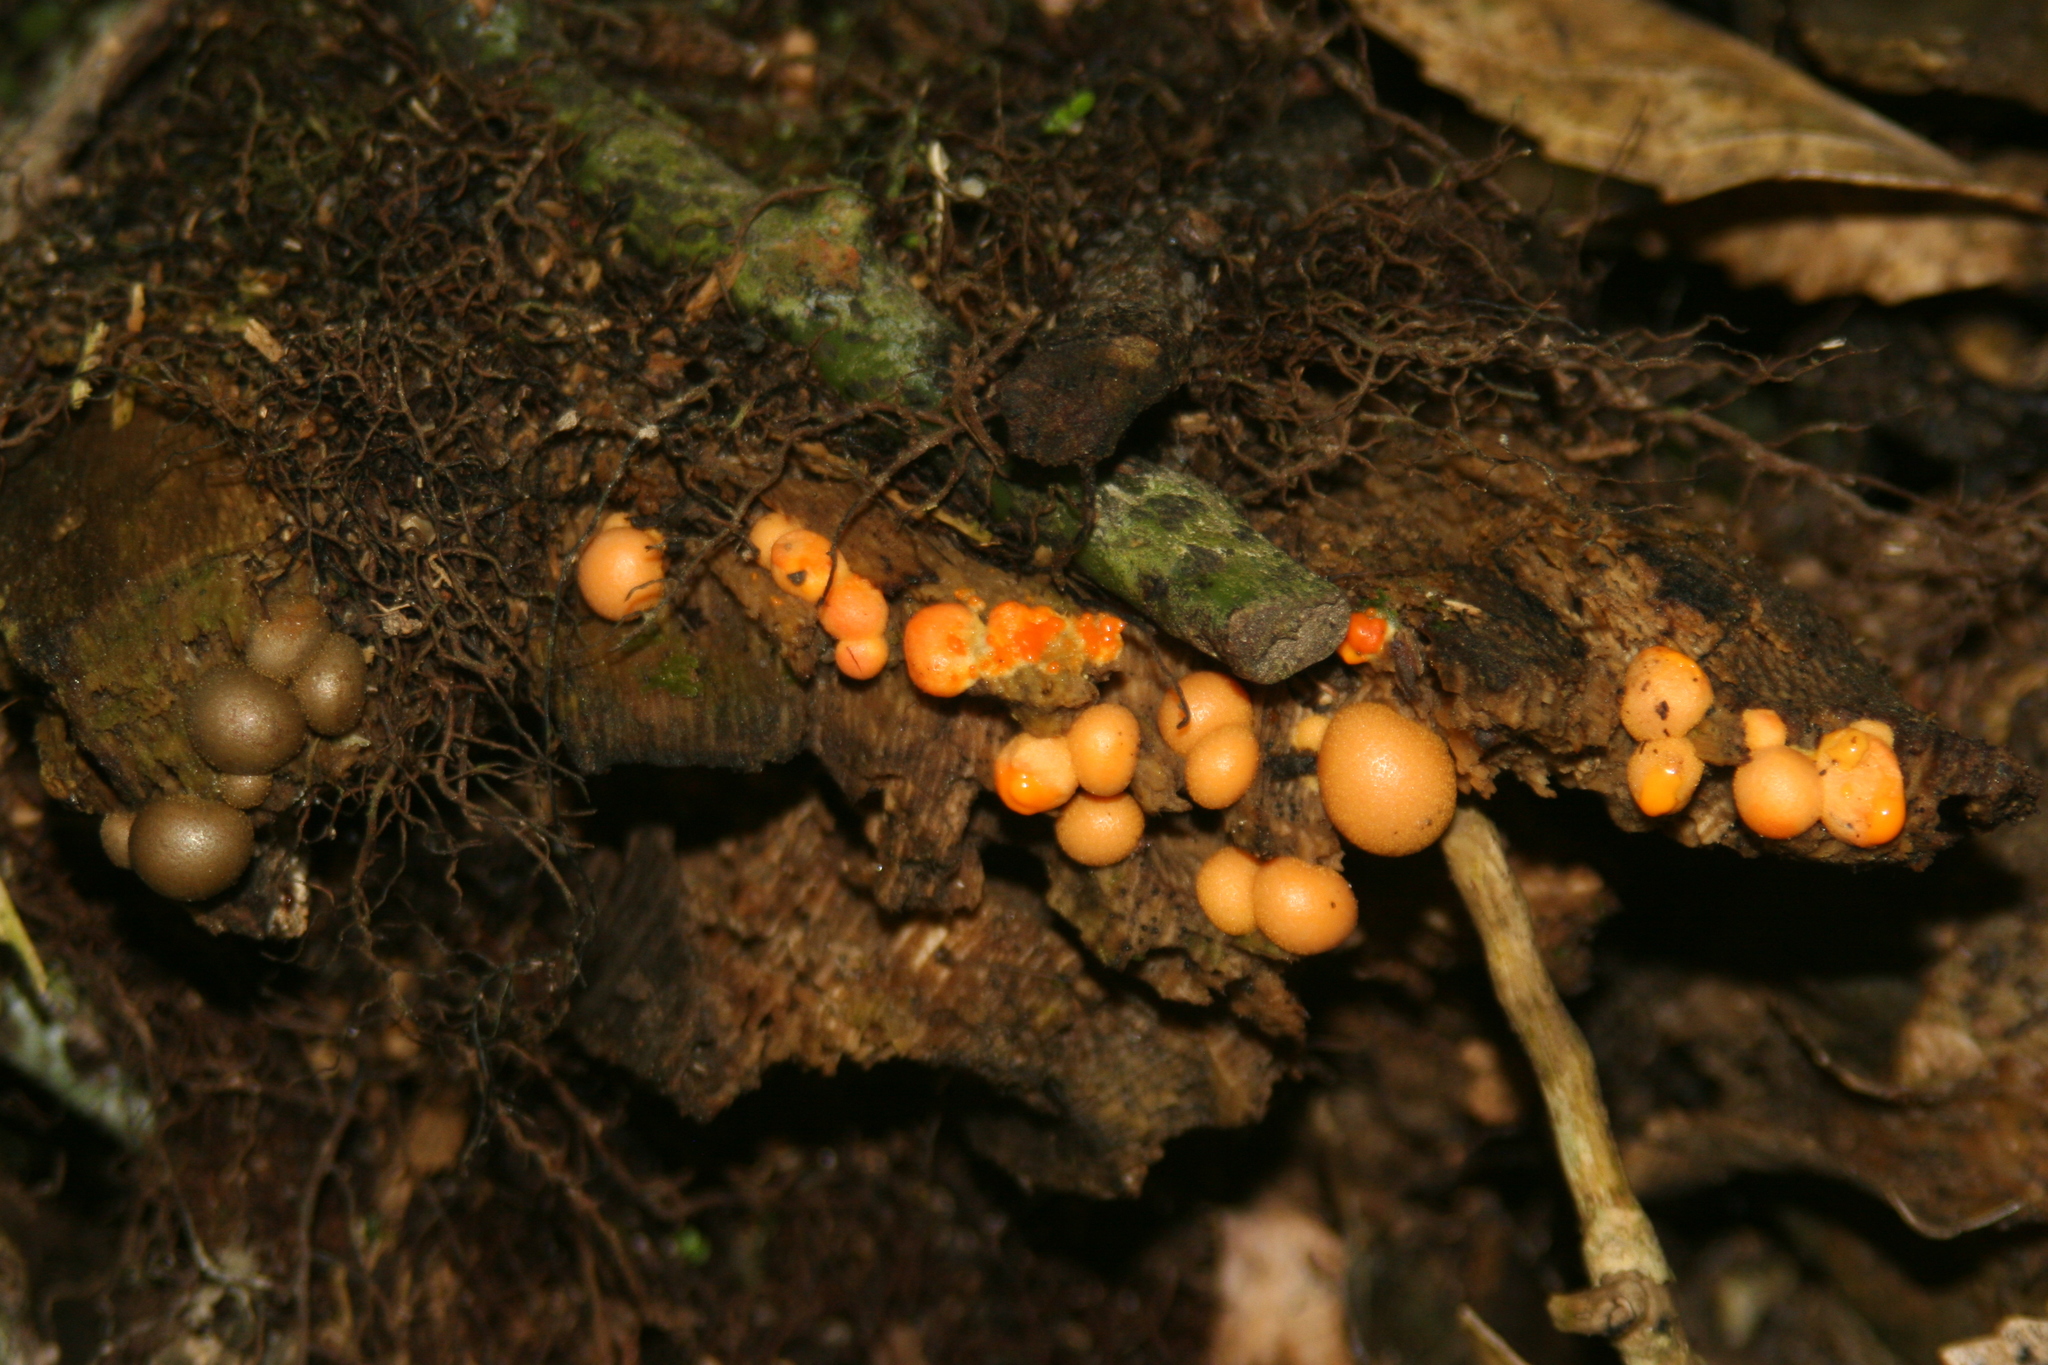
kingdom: Protozoa
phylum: Mycetozoa
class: Myxomycetes
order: Cribrariales
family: Tubiferaceae
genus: Lycogala
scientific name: Lycogala epidendrum
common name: Wolf's milk
